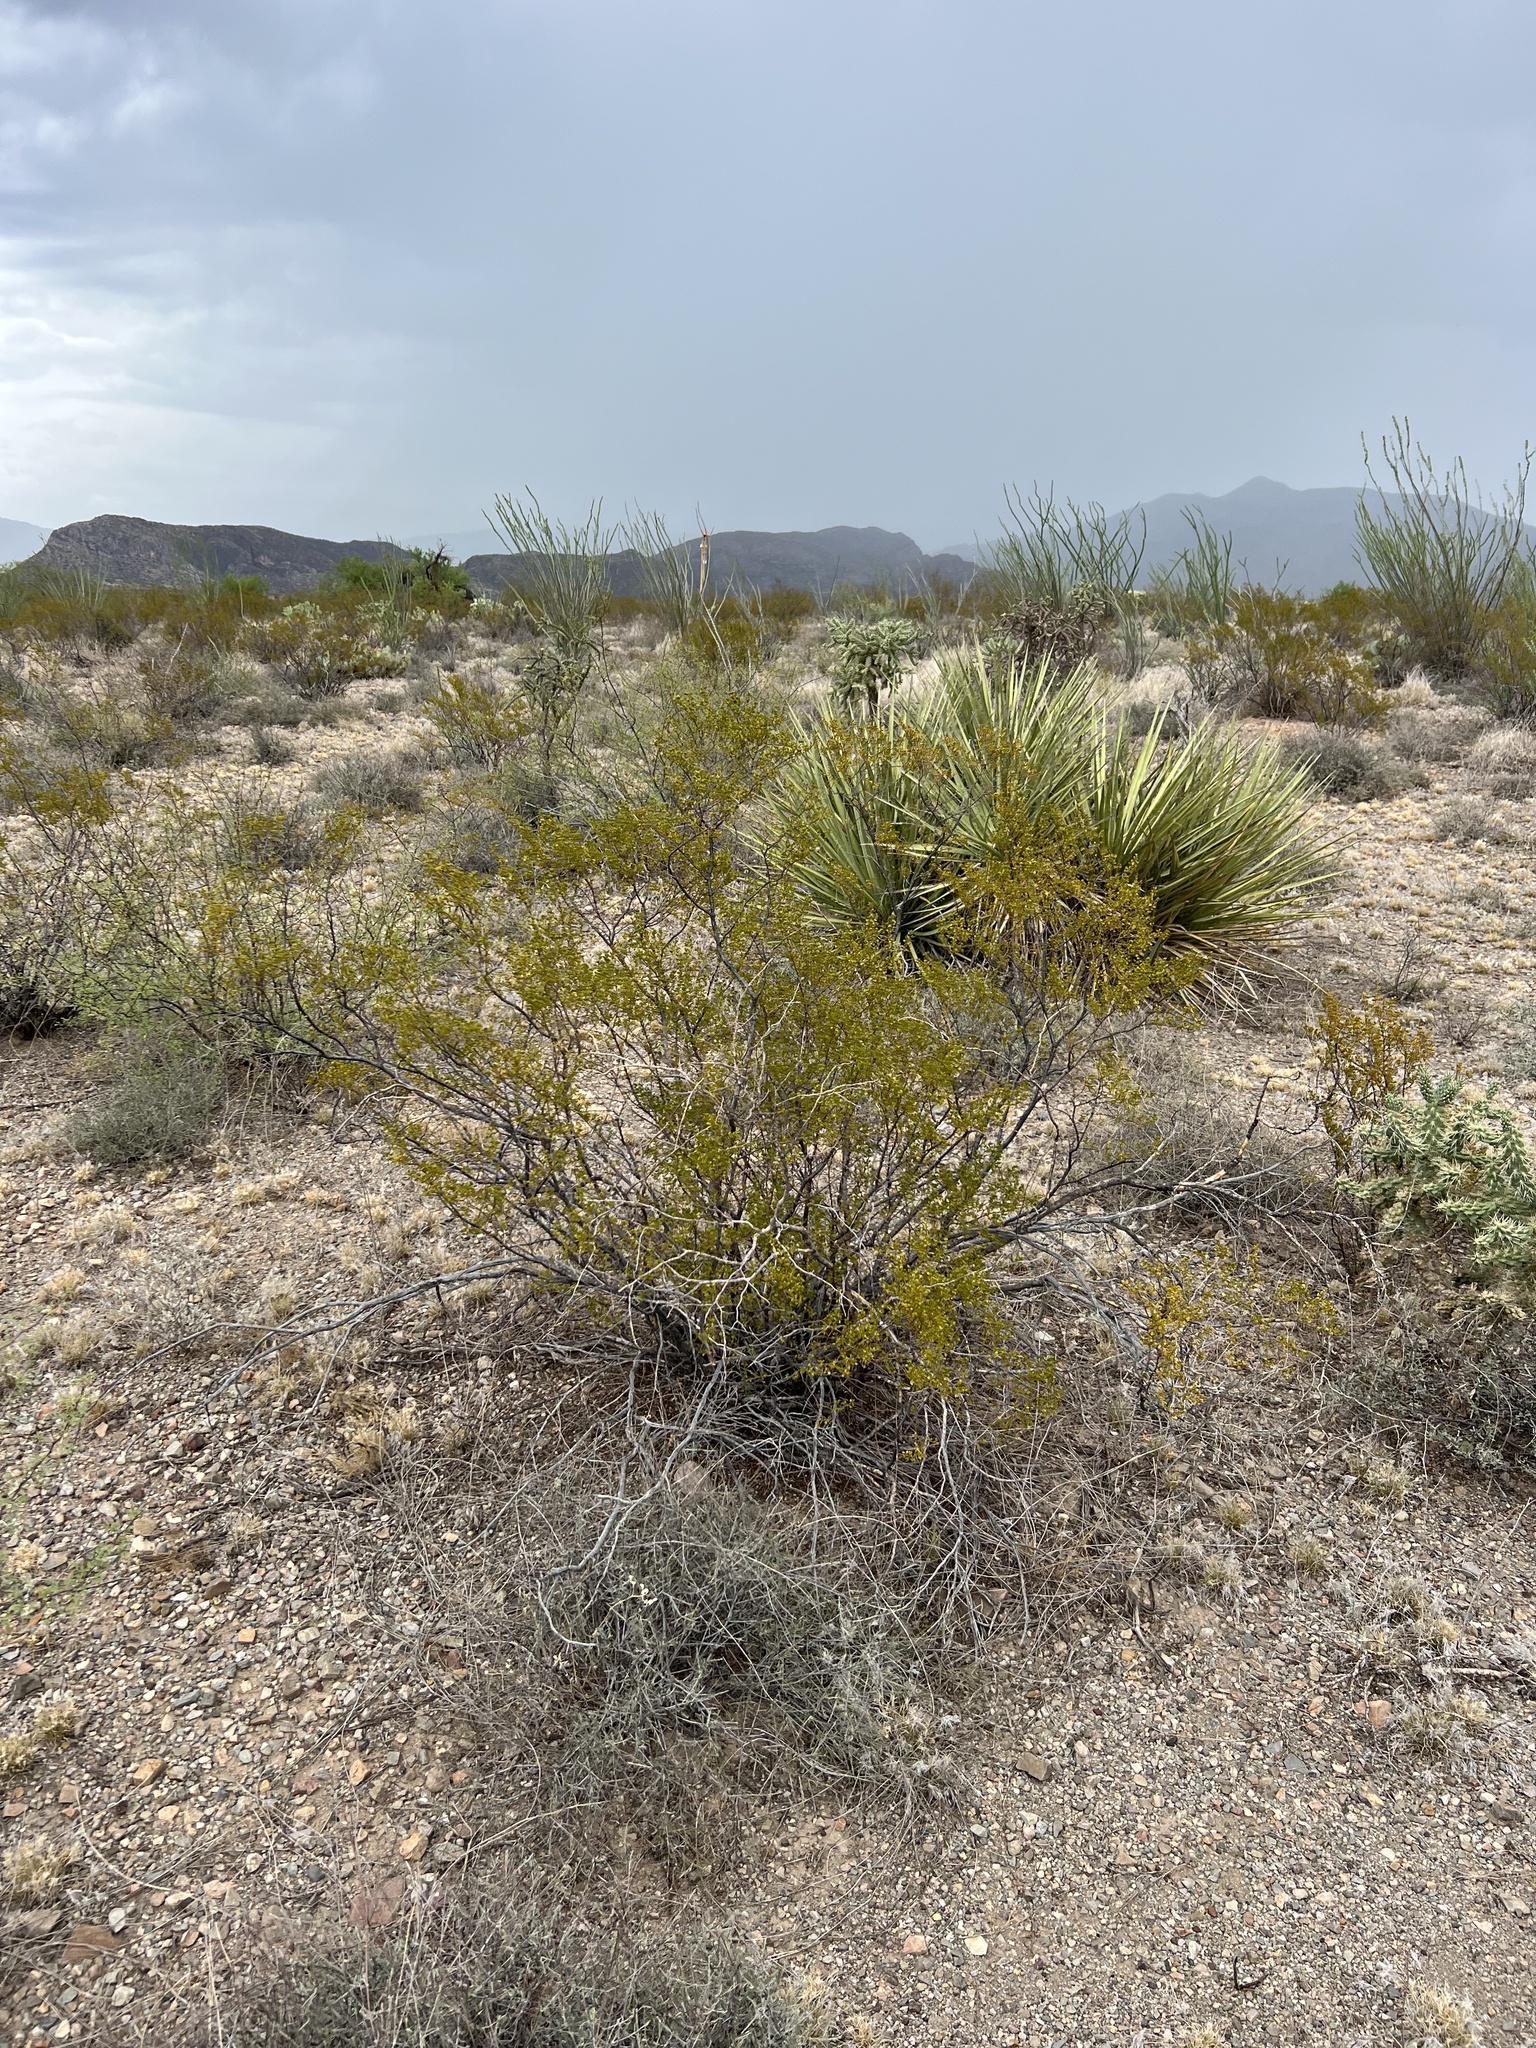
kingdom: Plantae
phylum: Tracheophyta
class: Magnoliopsida
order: Zygophyllales
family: Zygophyllaceae
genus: Larrea
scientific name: Larrea tridentata
